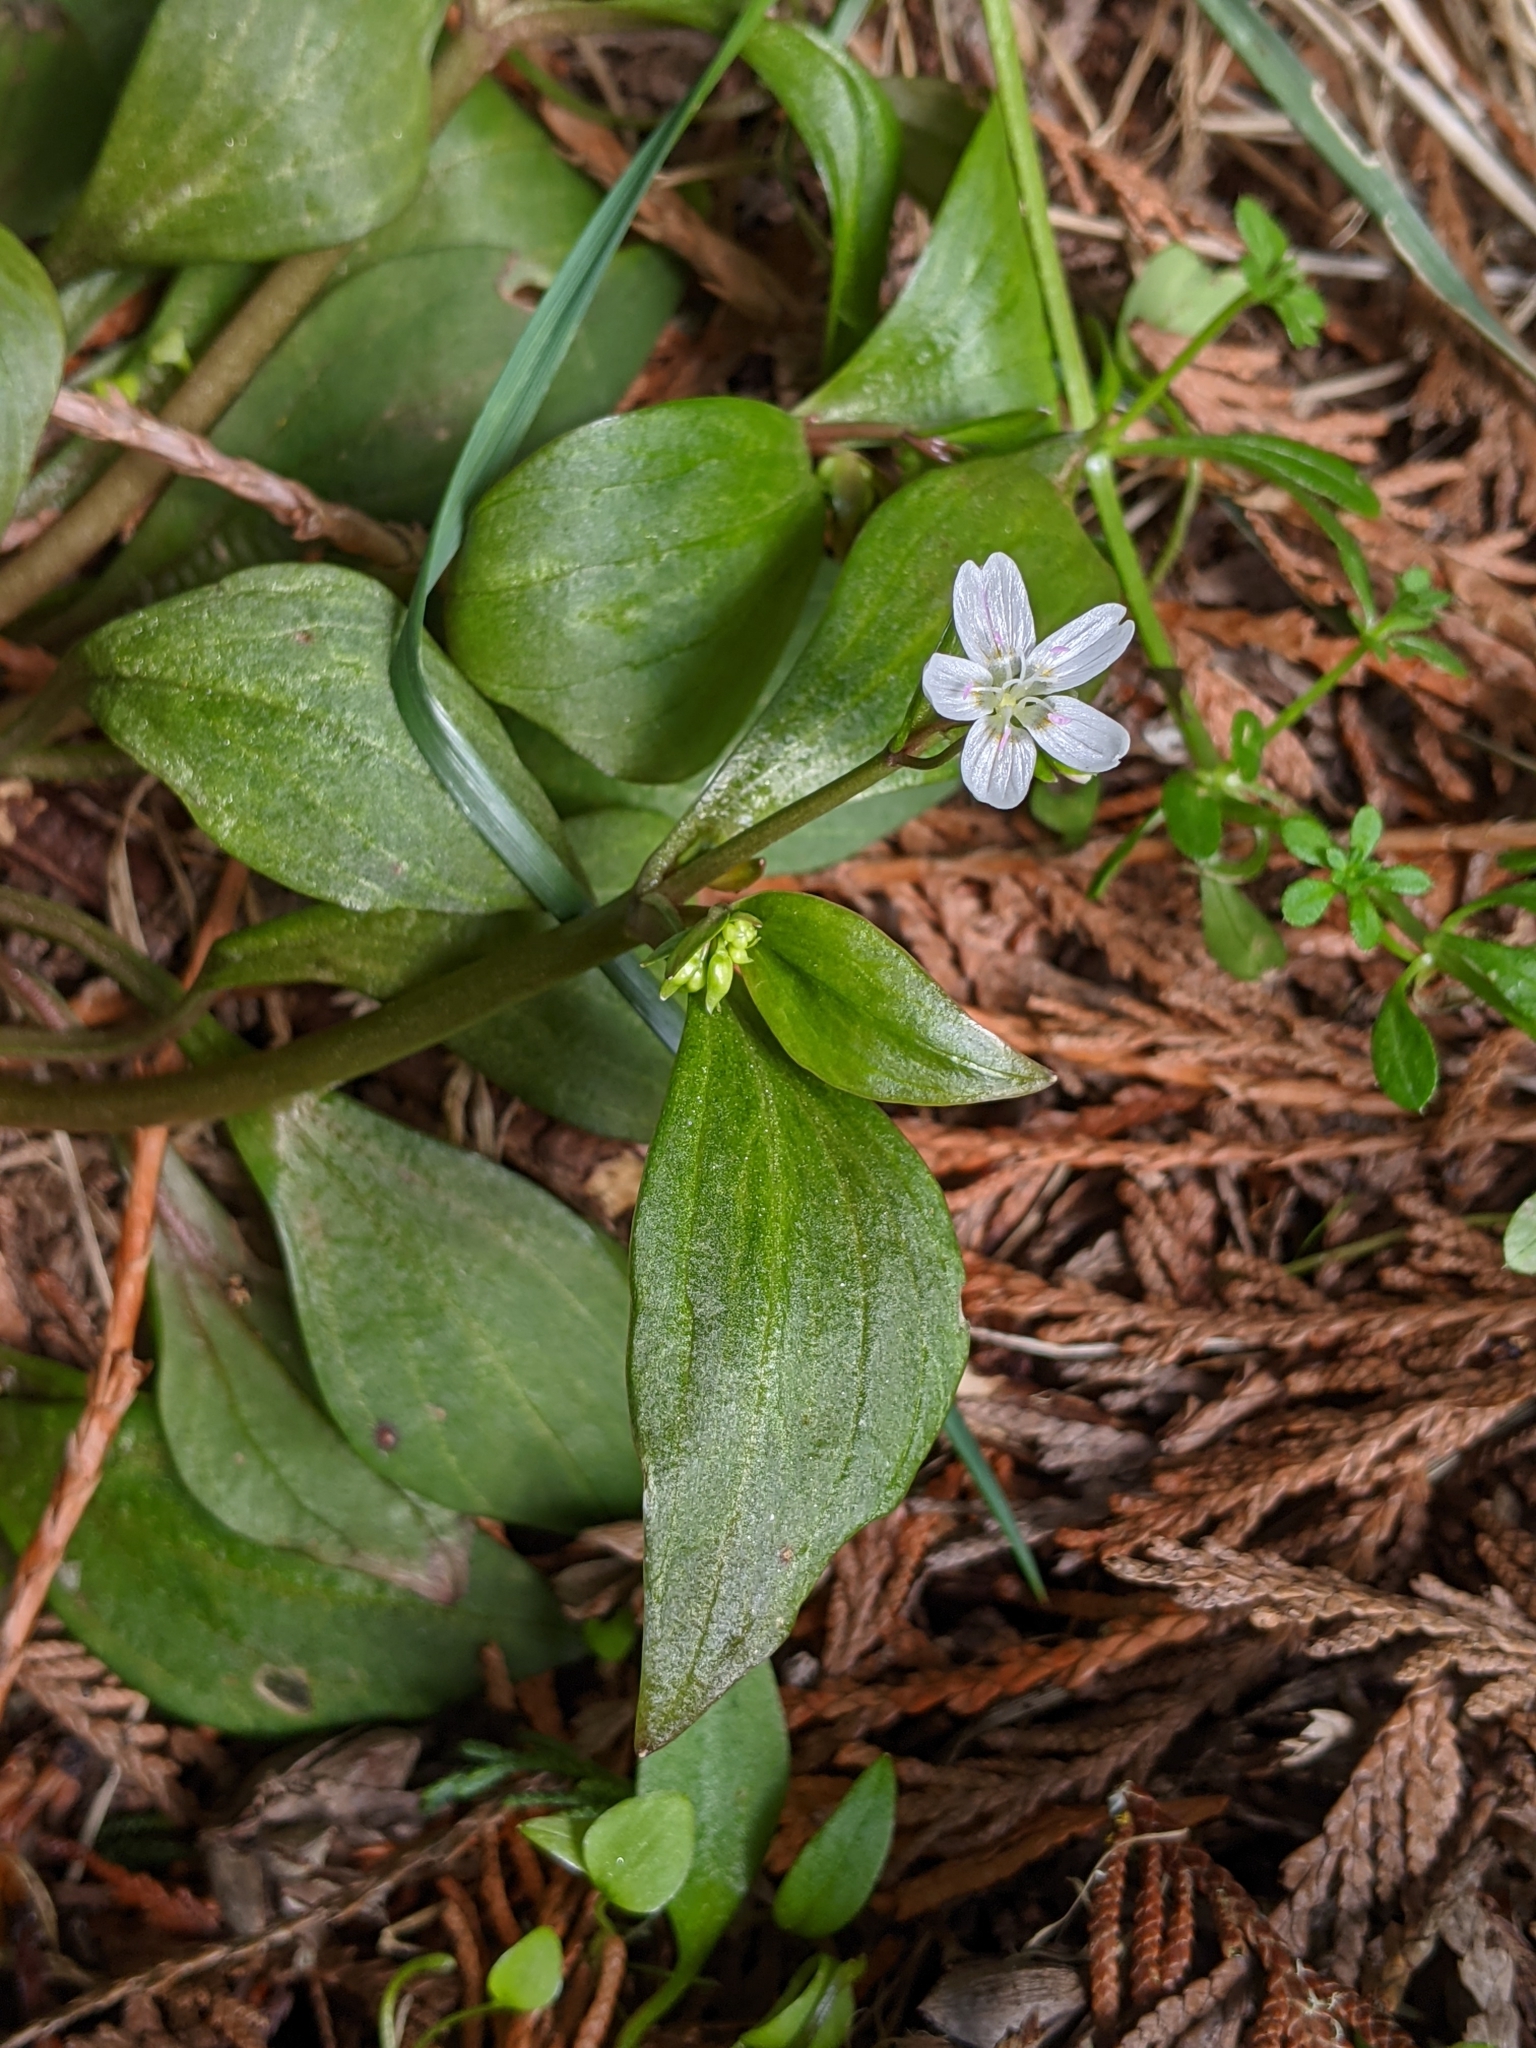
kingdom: Plantae
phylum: Tracheophyta
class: Magnoliopsida
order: Caryophyllales
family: Montiaceae
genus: Claytonia
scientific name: Claytonia sibirica
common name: Pink purslane
